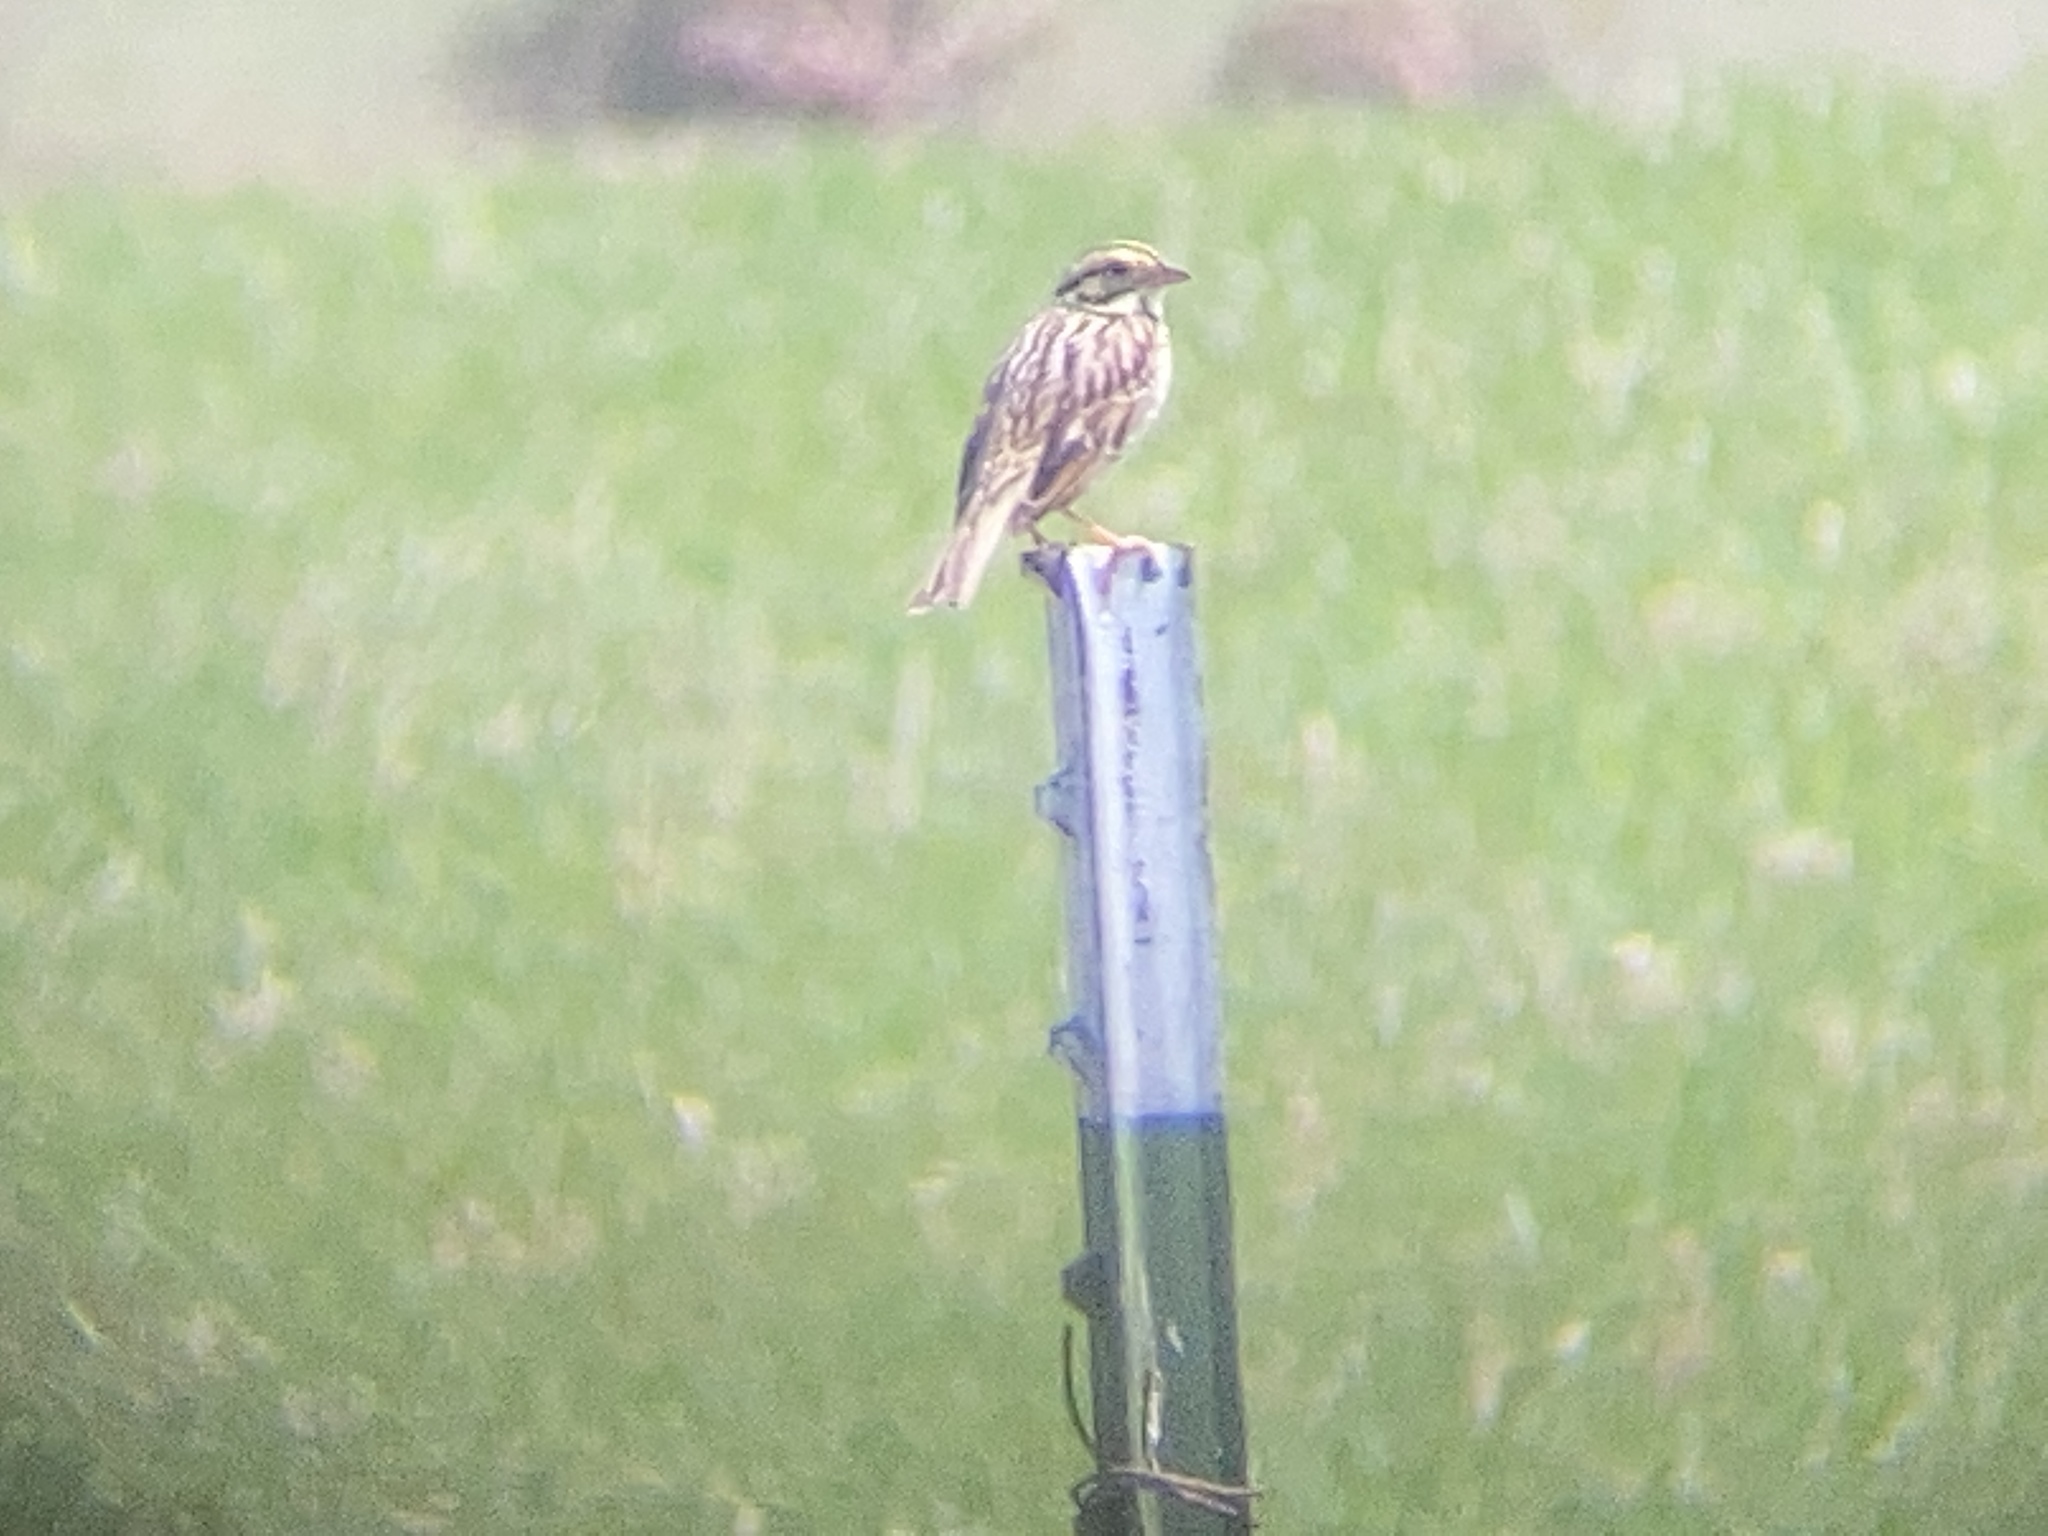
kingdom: Animalia
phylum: Chordata
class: Aves
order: Passeriformes
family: Passerellidae
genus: Passerculus
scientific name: Passerculus sandwichensis
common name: Savannah sparrow
